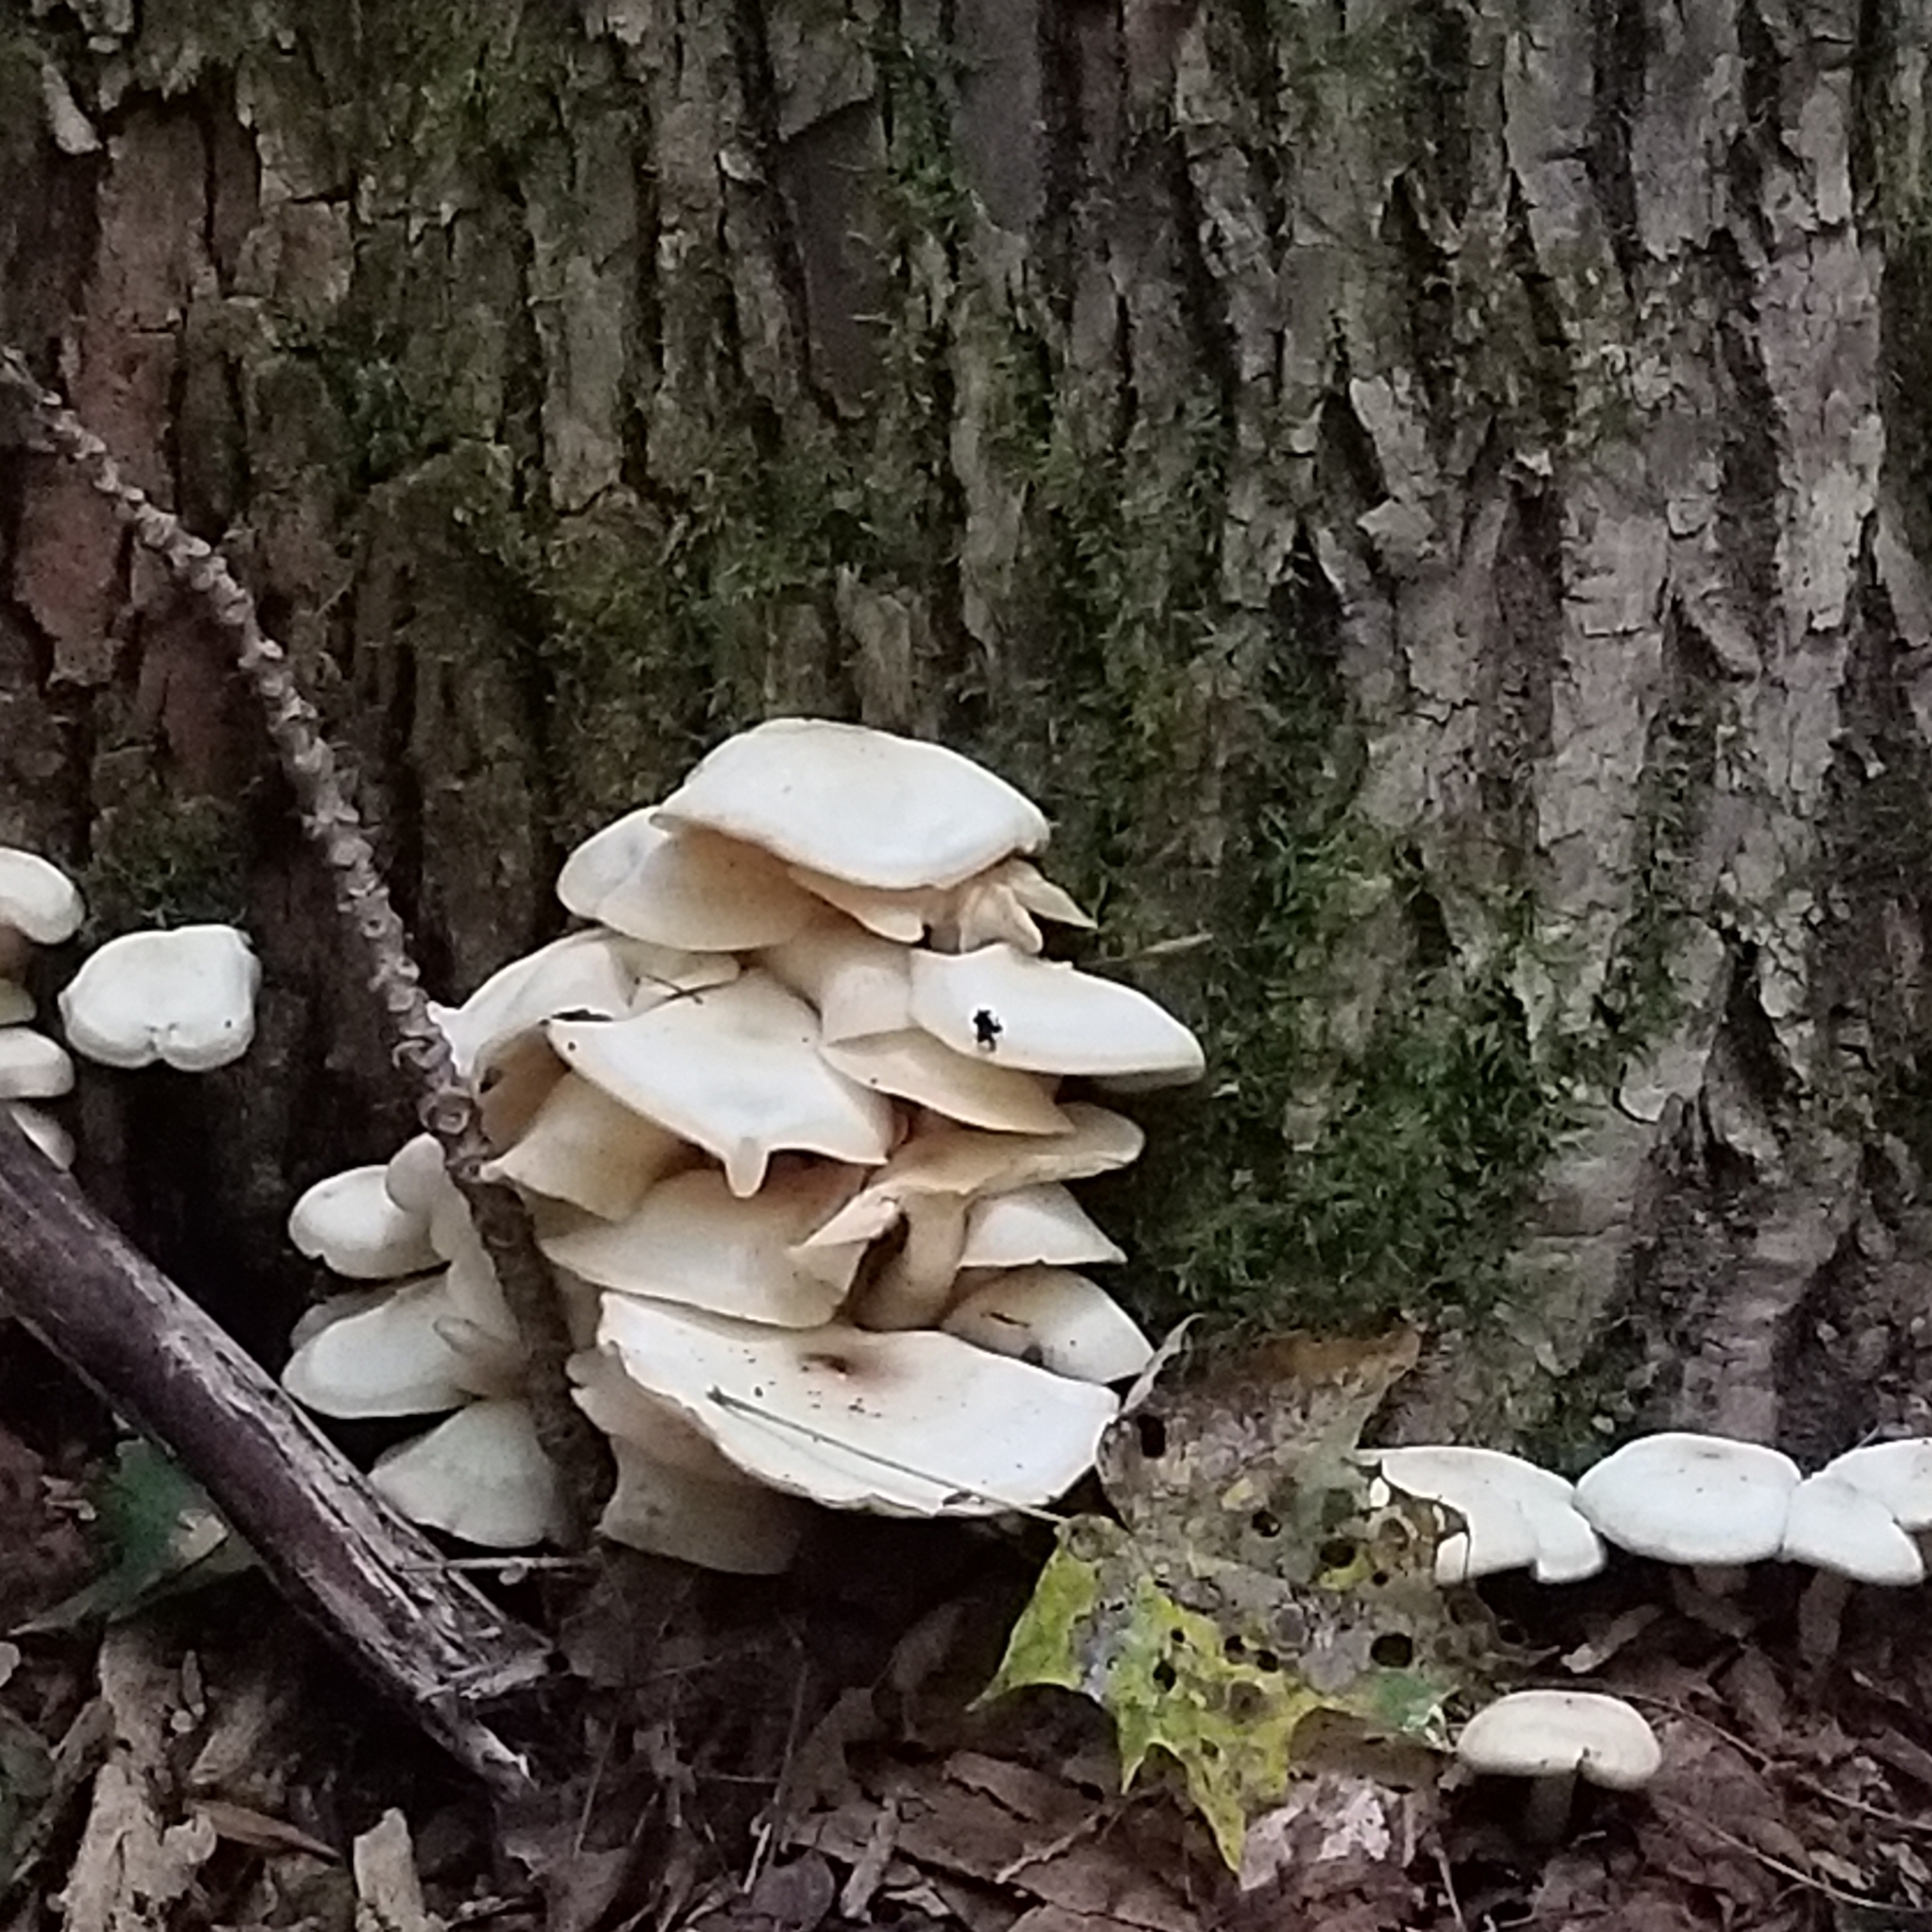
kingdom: Fungi
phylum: Basidiomycota
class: Agaricomycetes
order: Agaricales
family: Pleurotaceae
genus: Pleurotus
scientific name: Pleurotus ostreatus
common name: Oyster mushroom
